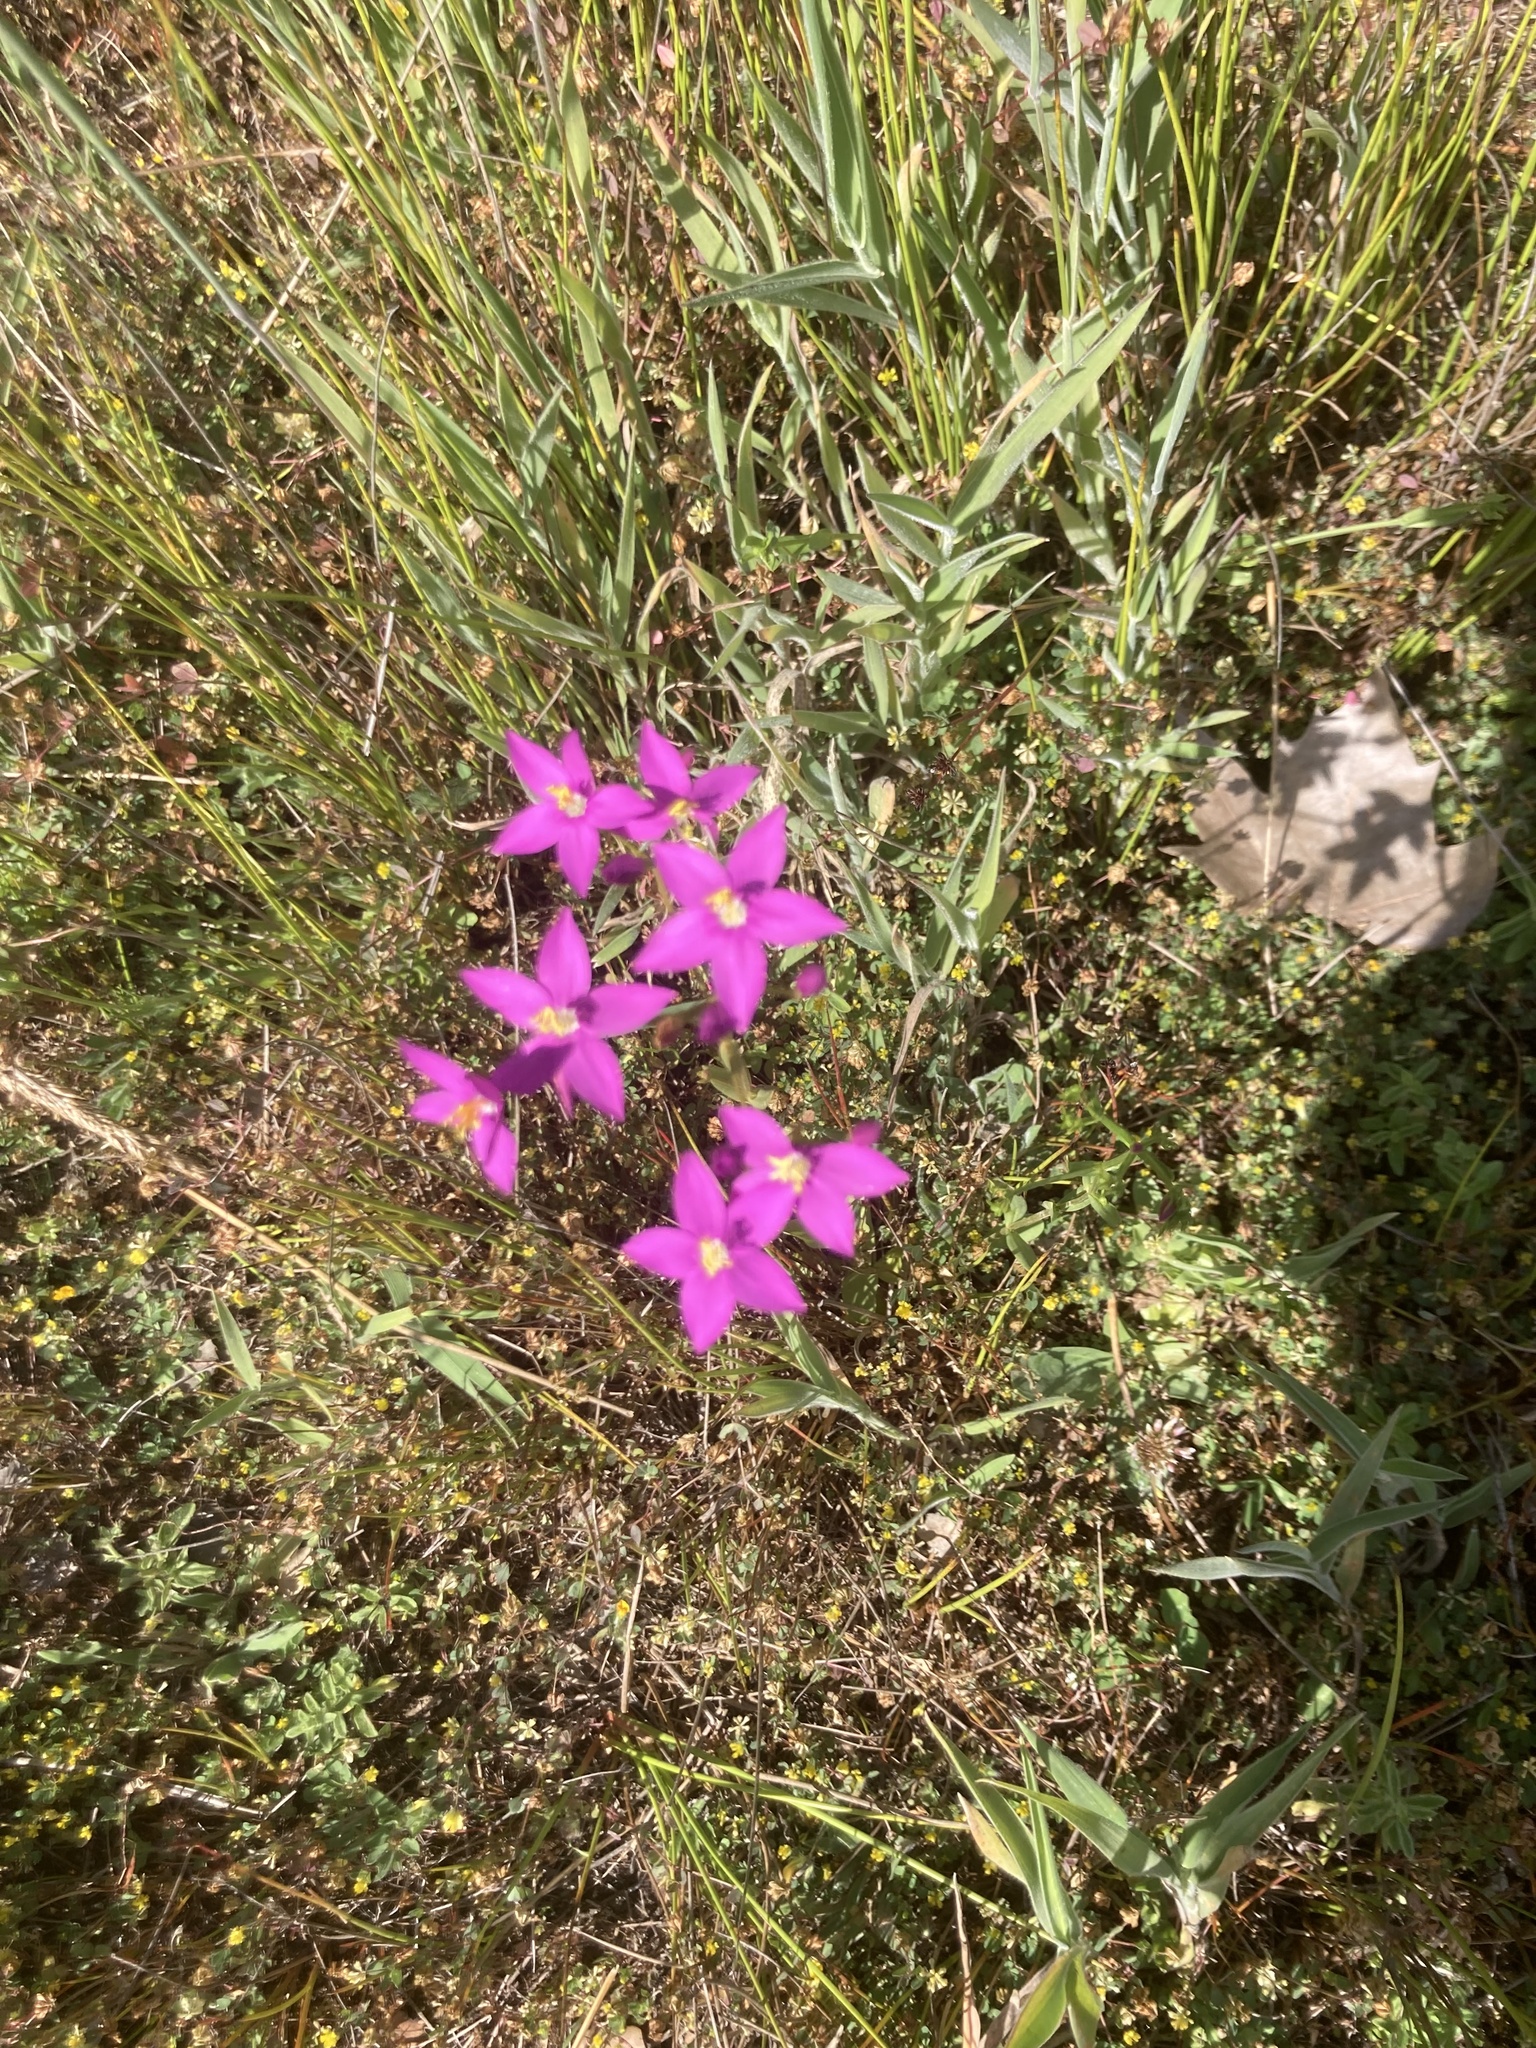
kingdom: Plantae
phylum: Tracheophyta
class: Magnoliopsida
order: Gentianales
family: Gentianaceae
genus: Centaurium
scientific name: Centaurium erythraea
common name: Common centaury
